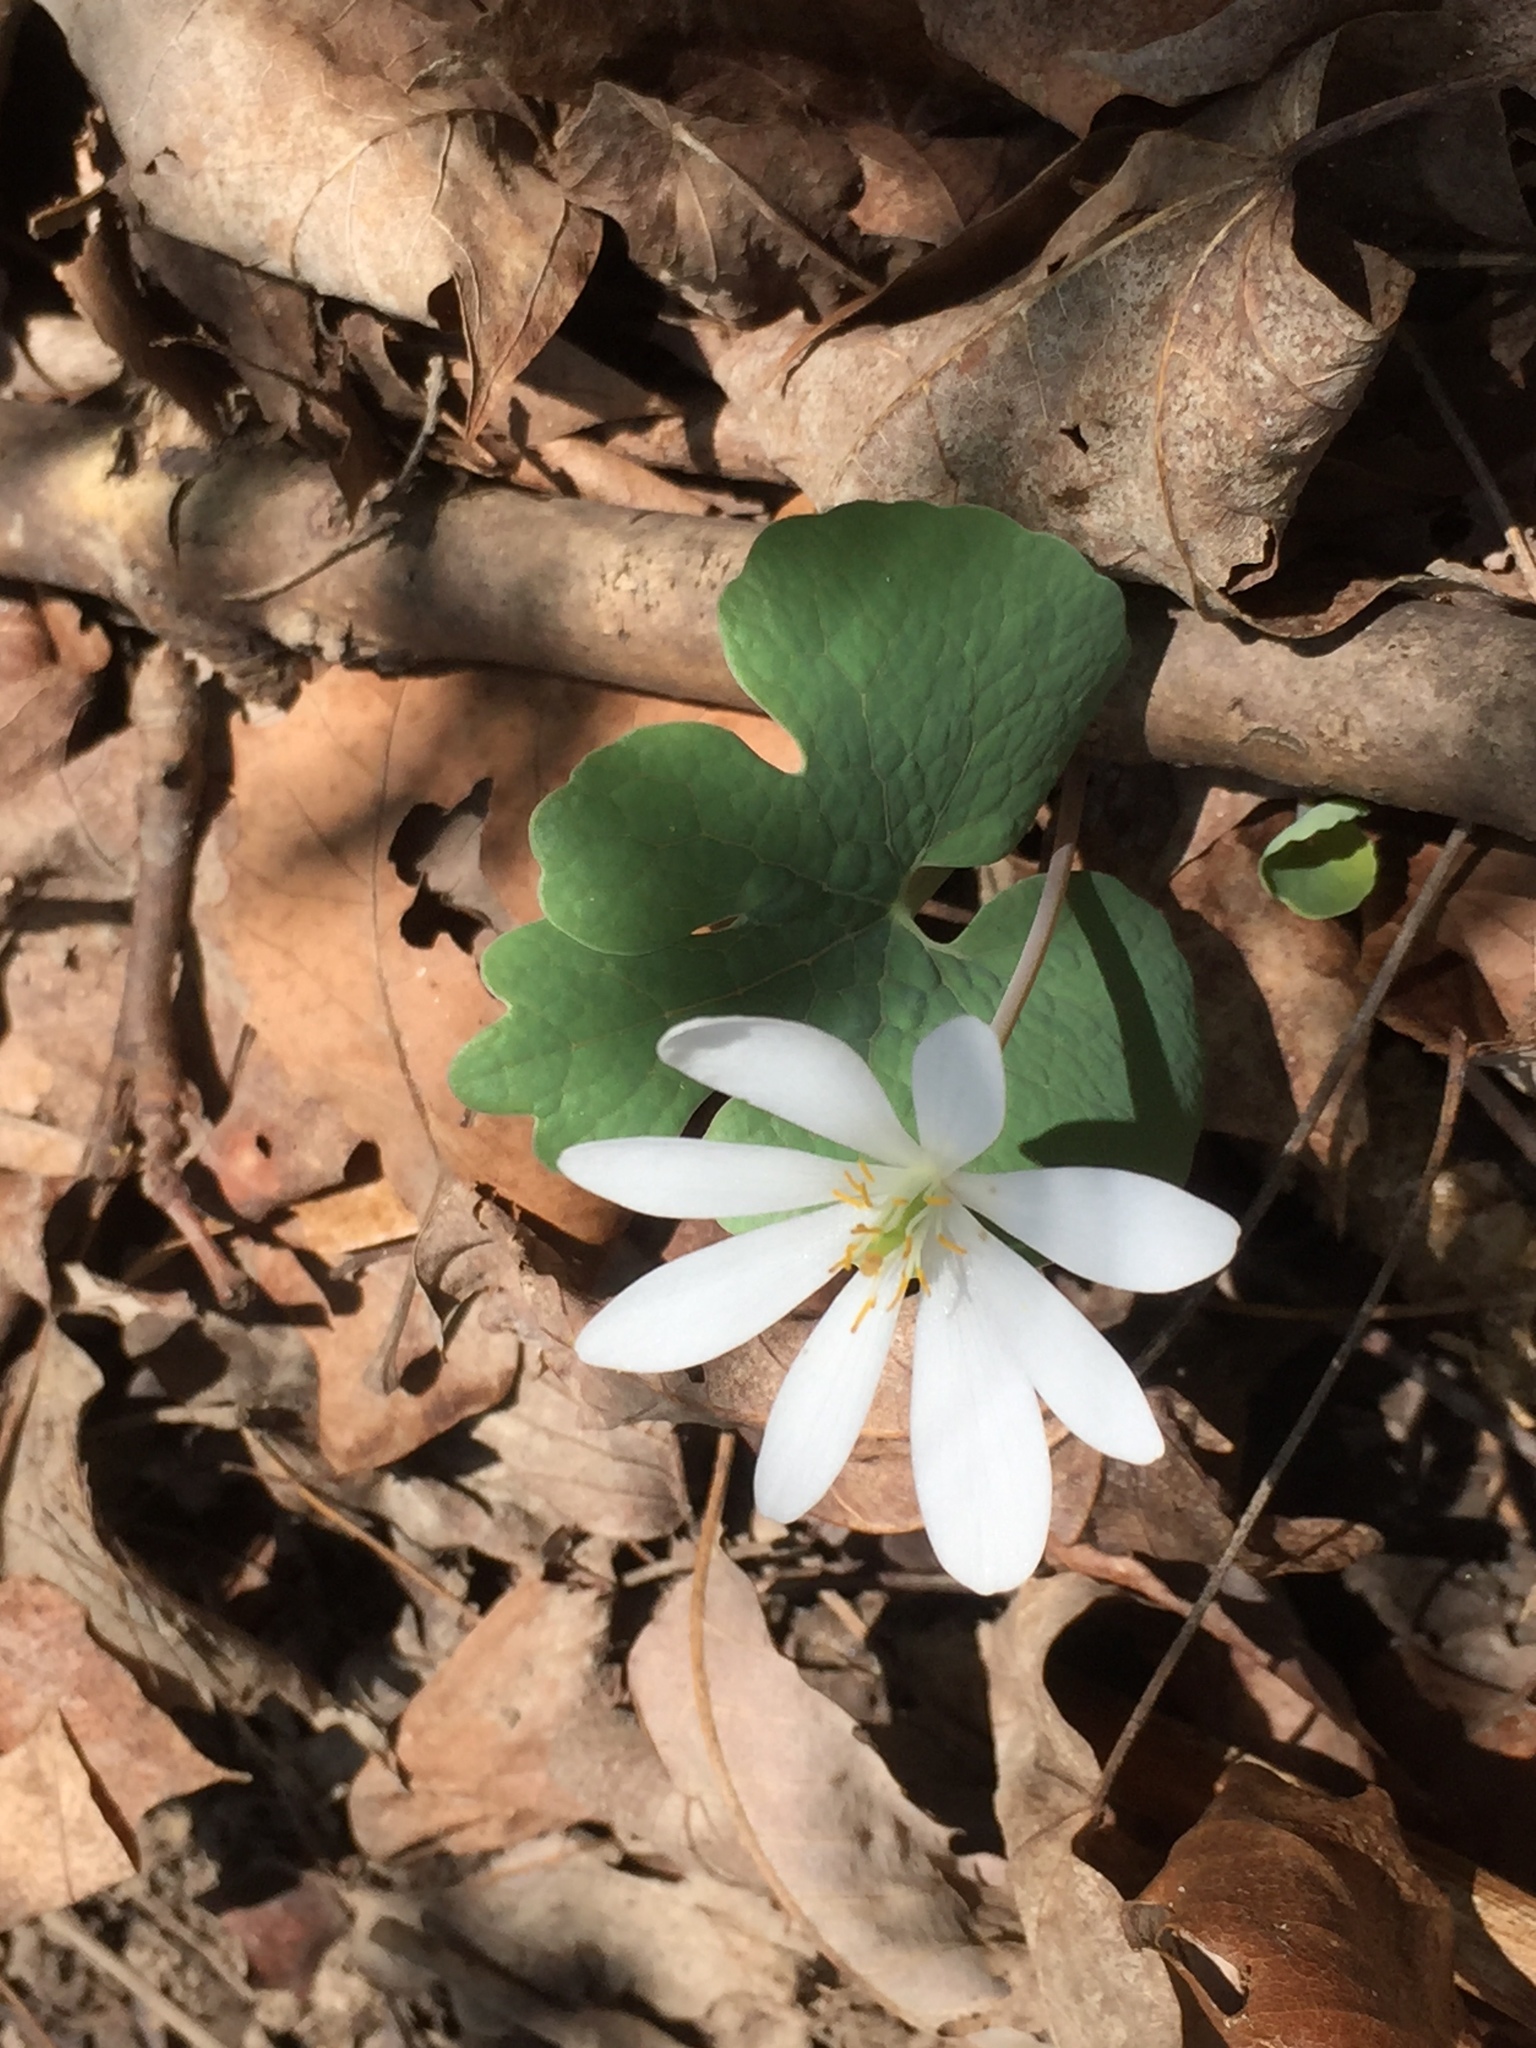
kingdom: Plantae
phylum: Tracheophyta
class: Magnoliopsida
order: Ranunculales
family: Papaveraceae
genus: Sanguinaria
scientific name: Sanguinaria canadensis
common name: Bloodroot
